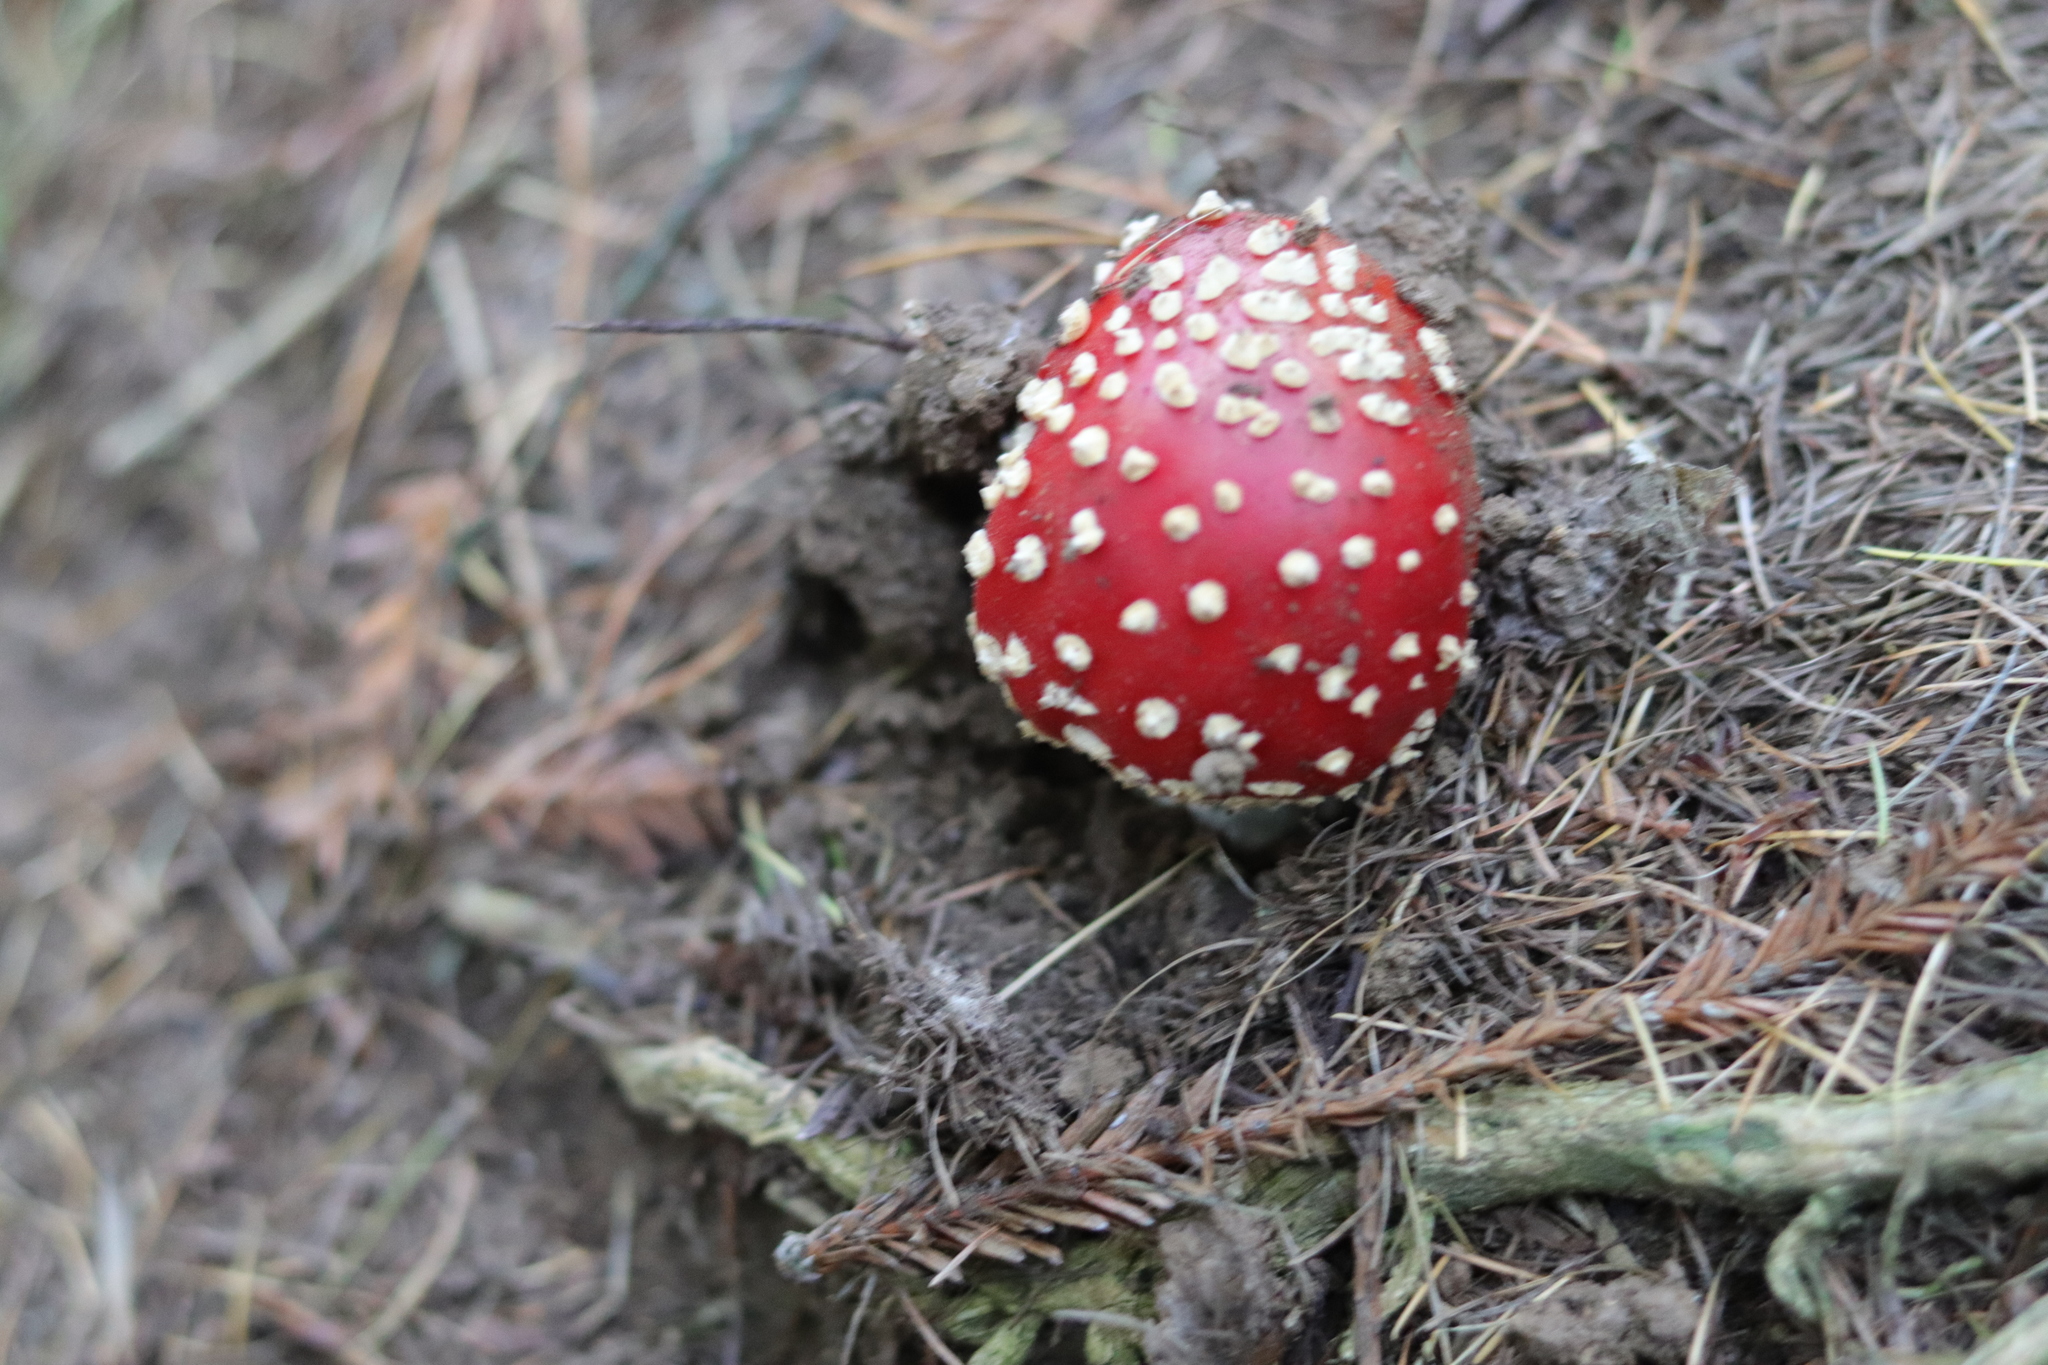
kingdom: Fungi
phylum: Basidiomycota
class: Agaricomycetes
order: Agaricales
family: Amanitaceae
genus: Amanita
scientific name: Amanita muscaria
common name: Fly agaric
